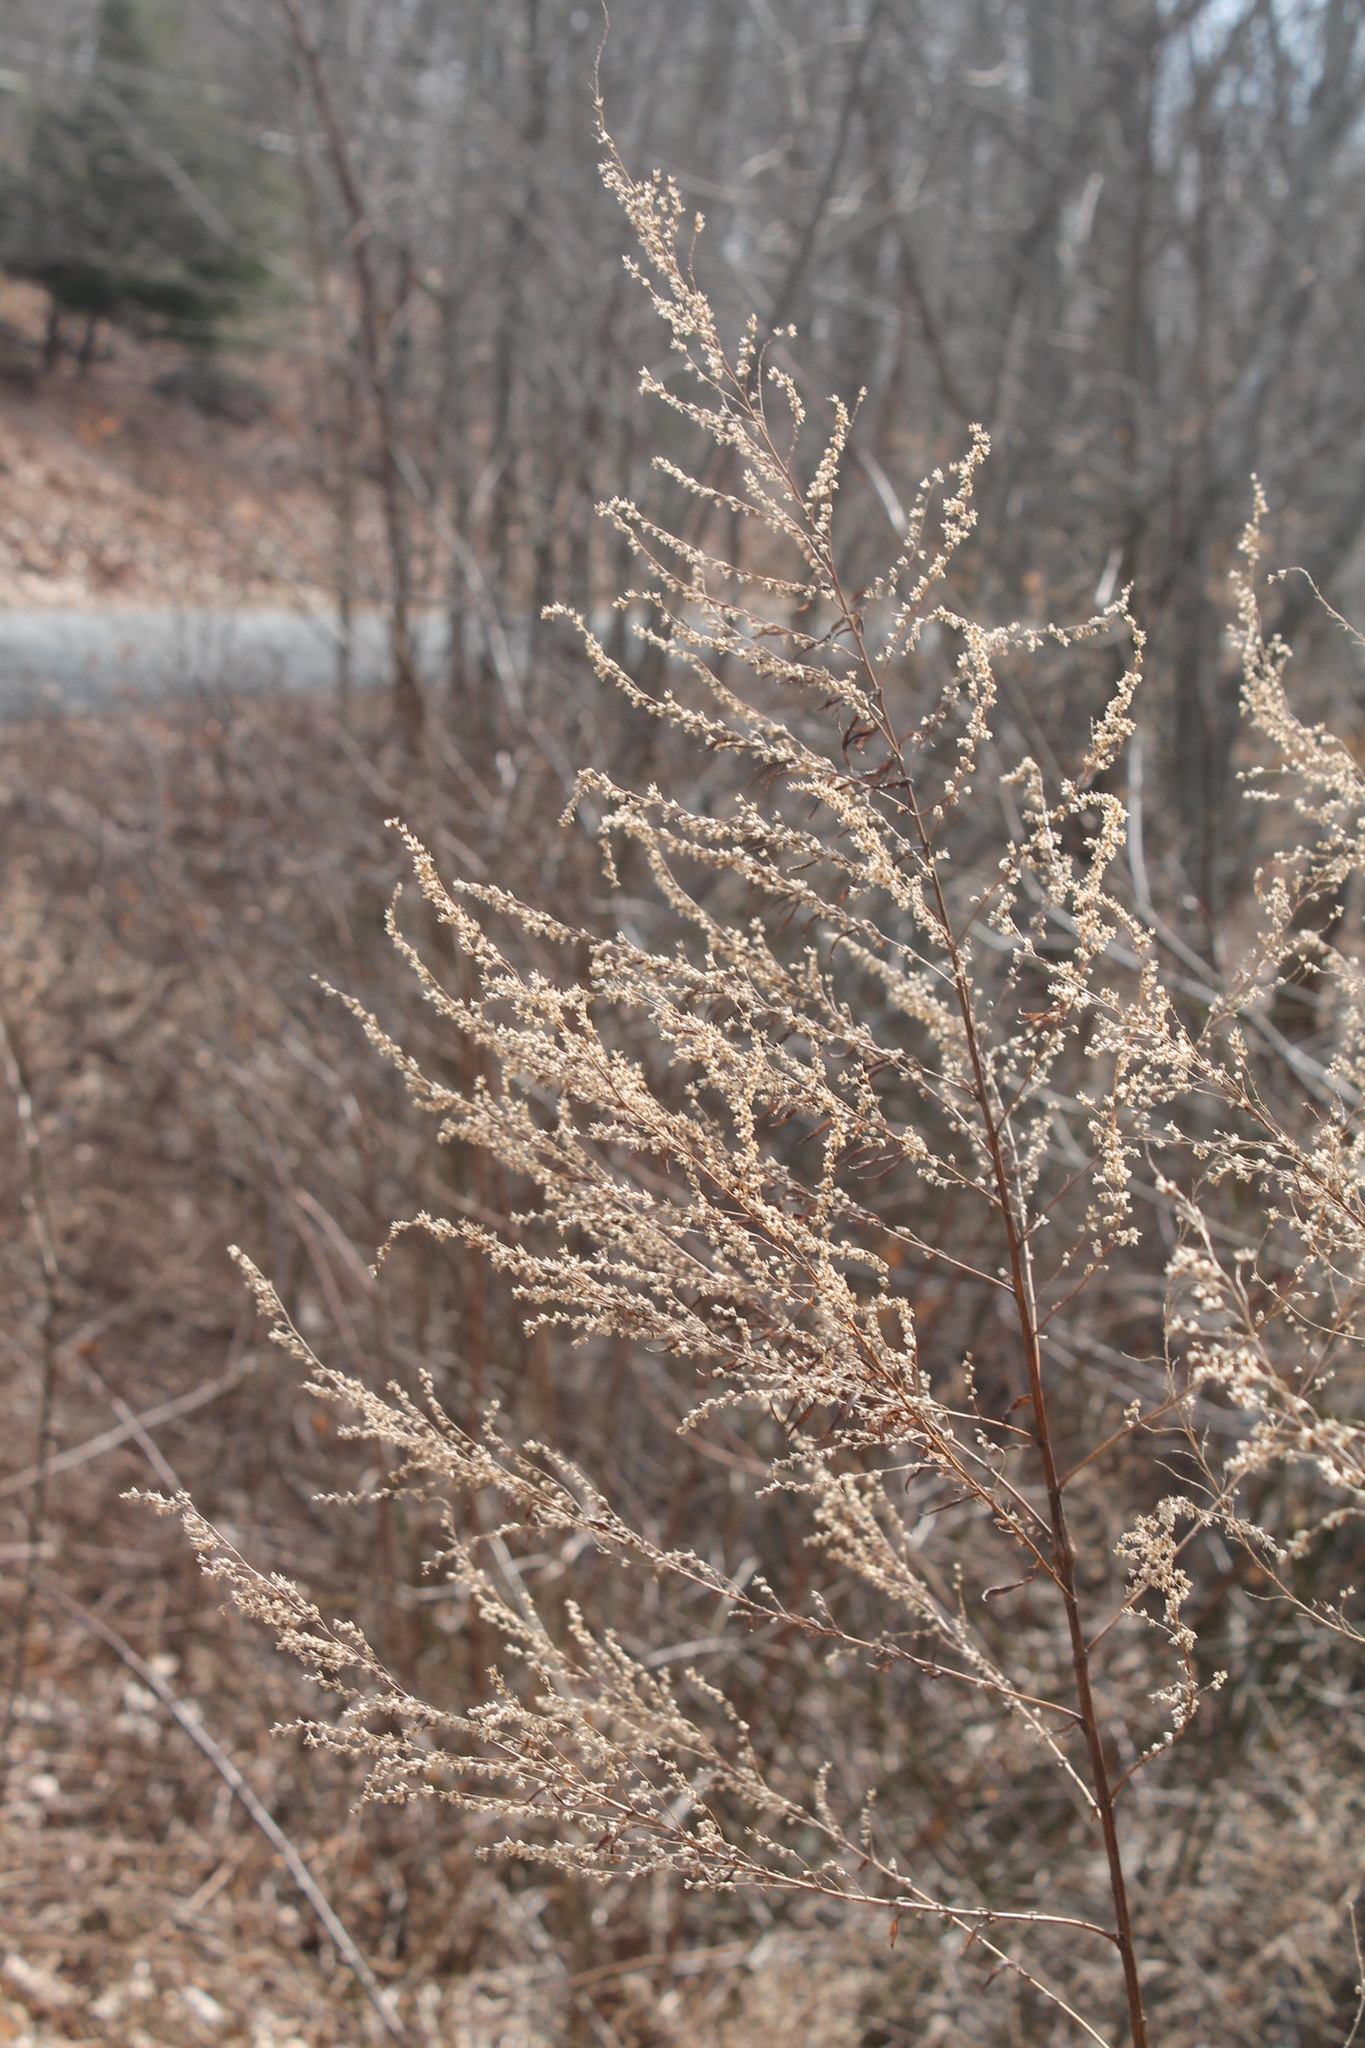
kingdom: Plantae
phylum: Tracheophyta
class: Magnoliopsida
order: Asterales
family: Asteraceae
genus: Artemisia
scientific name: Artemisia vulgaris
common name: Mugwort
